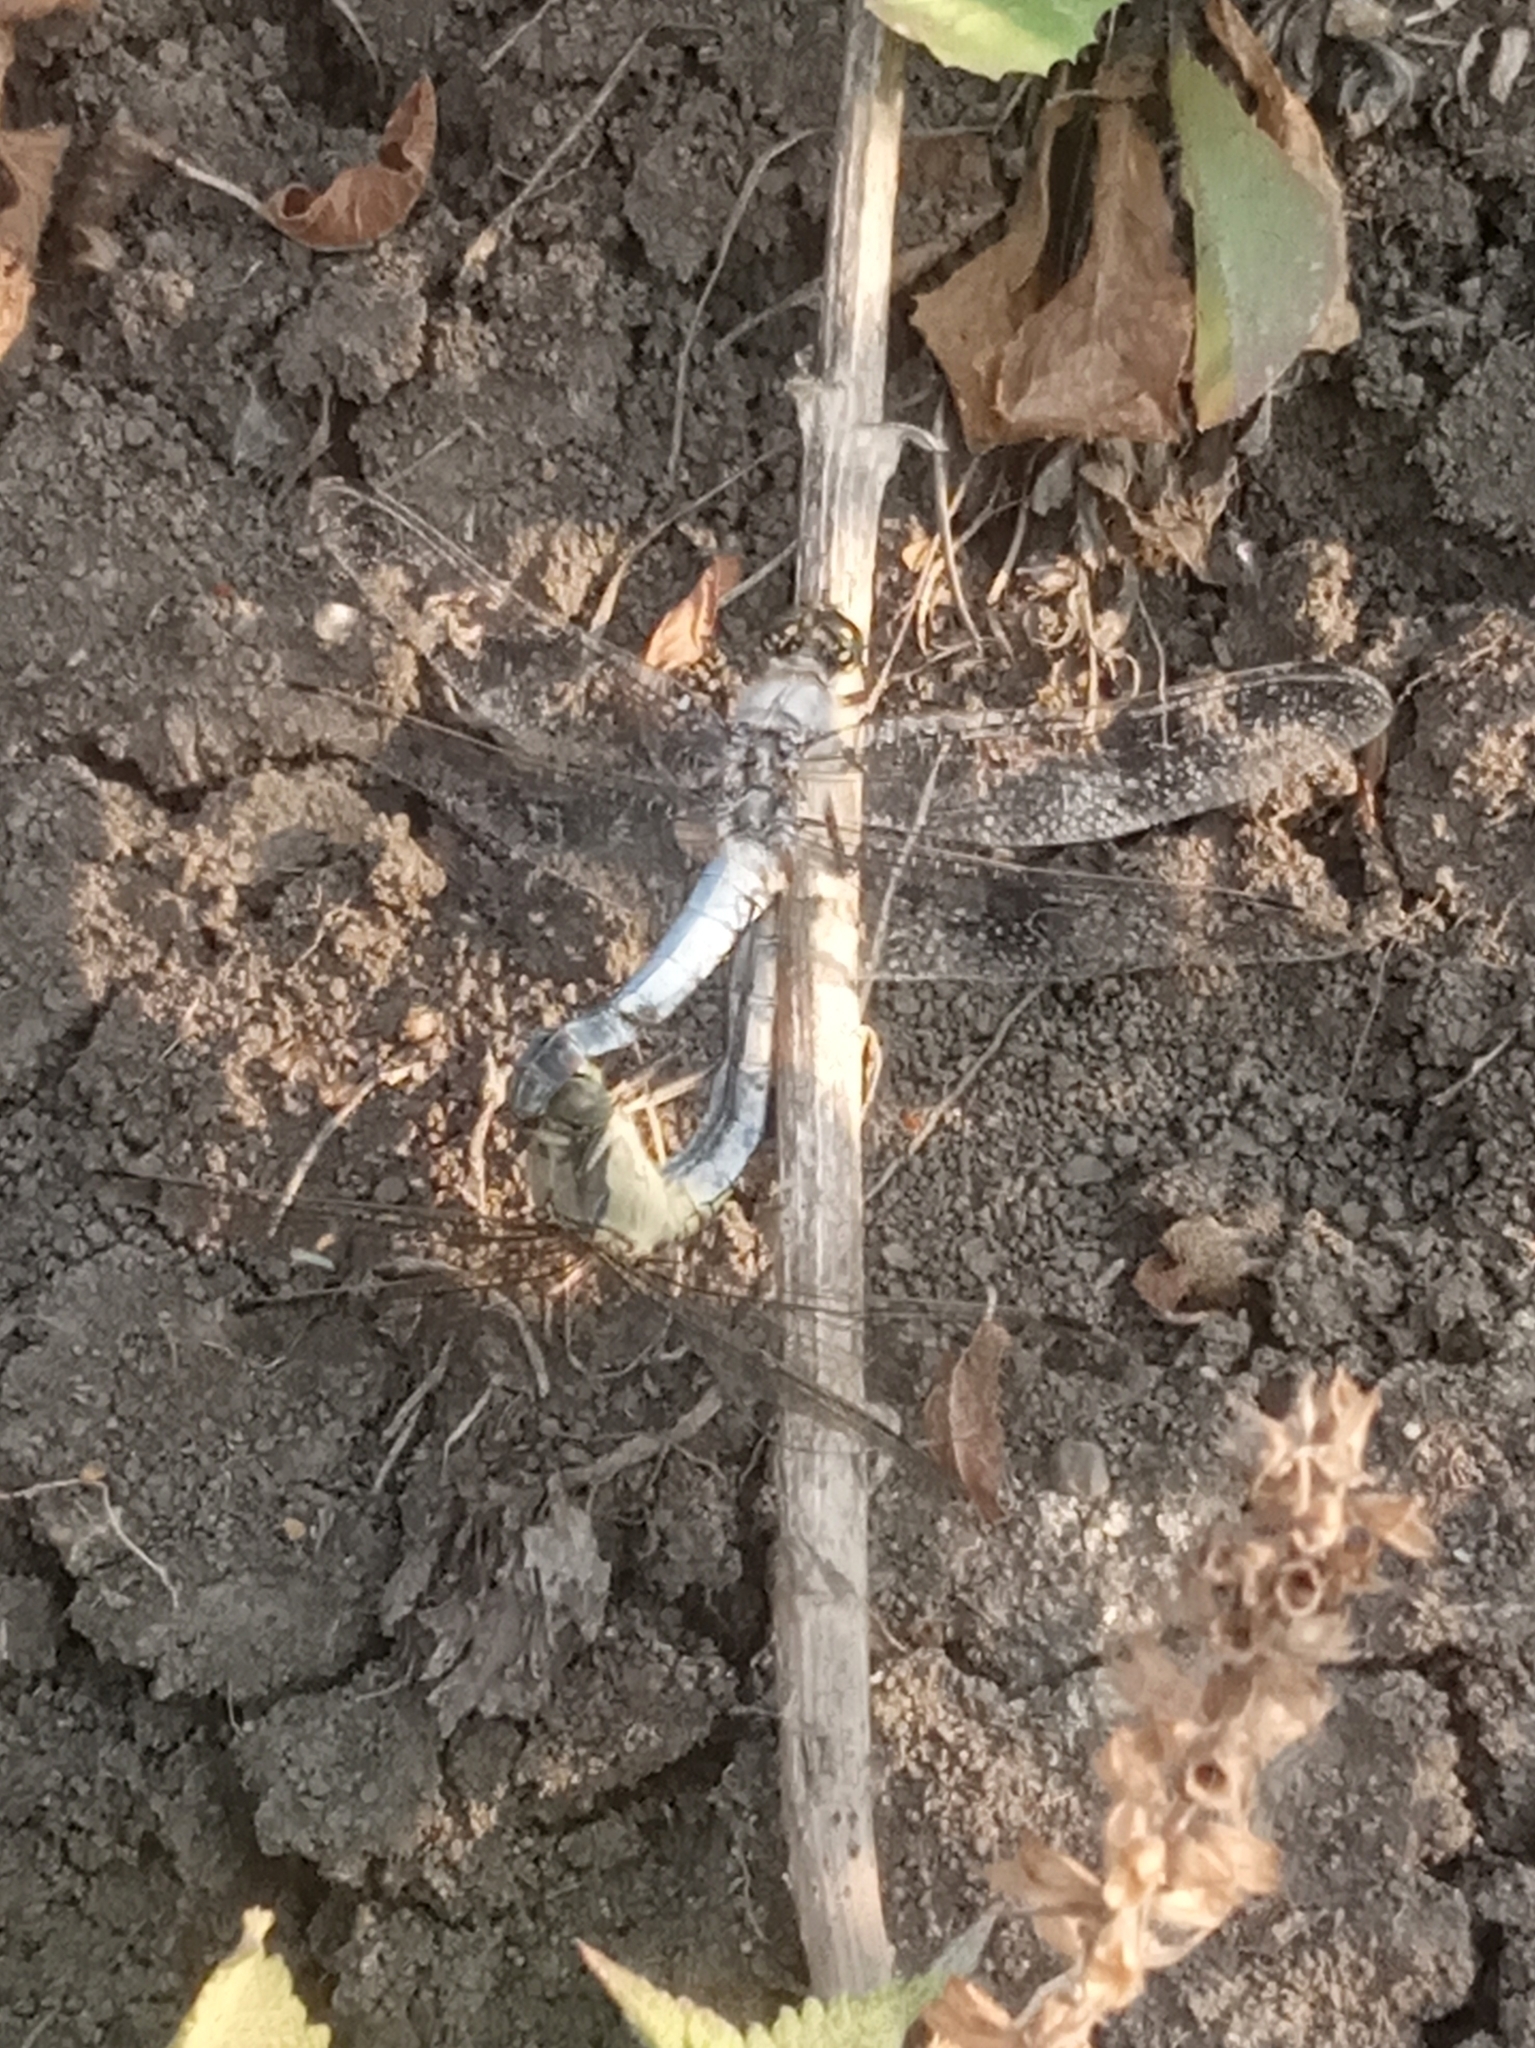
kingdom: Animalia
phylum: Arthropoda
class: Insecta
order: Odonata
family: Libellulidae
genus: Orthetrum
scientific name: Orthetrum cancellatum
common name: Black-tailed skimmer
